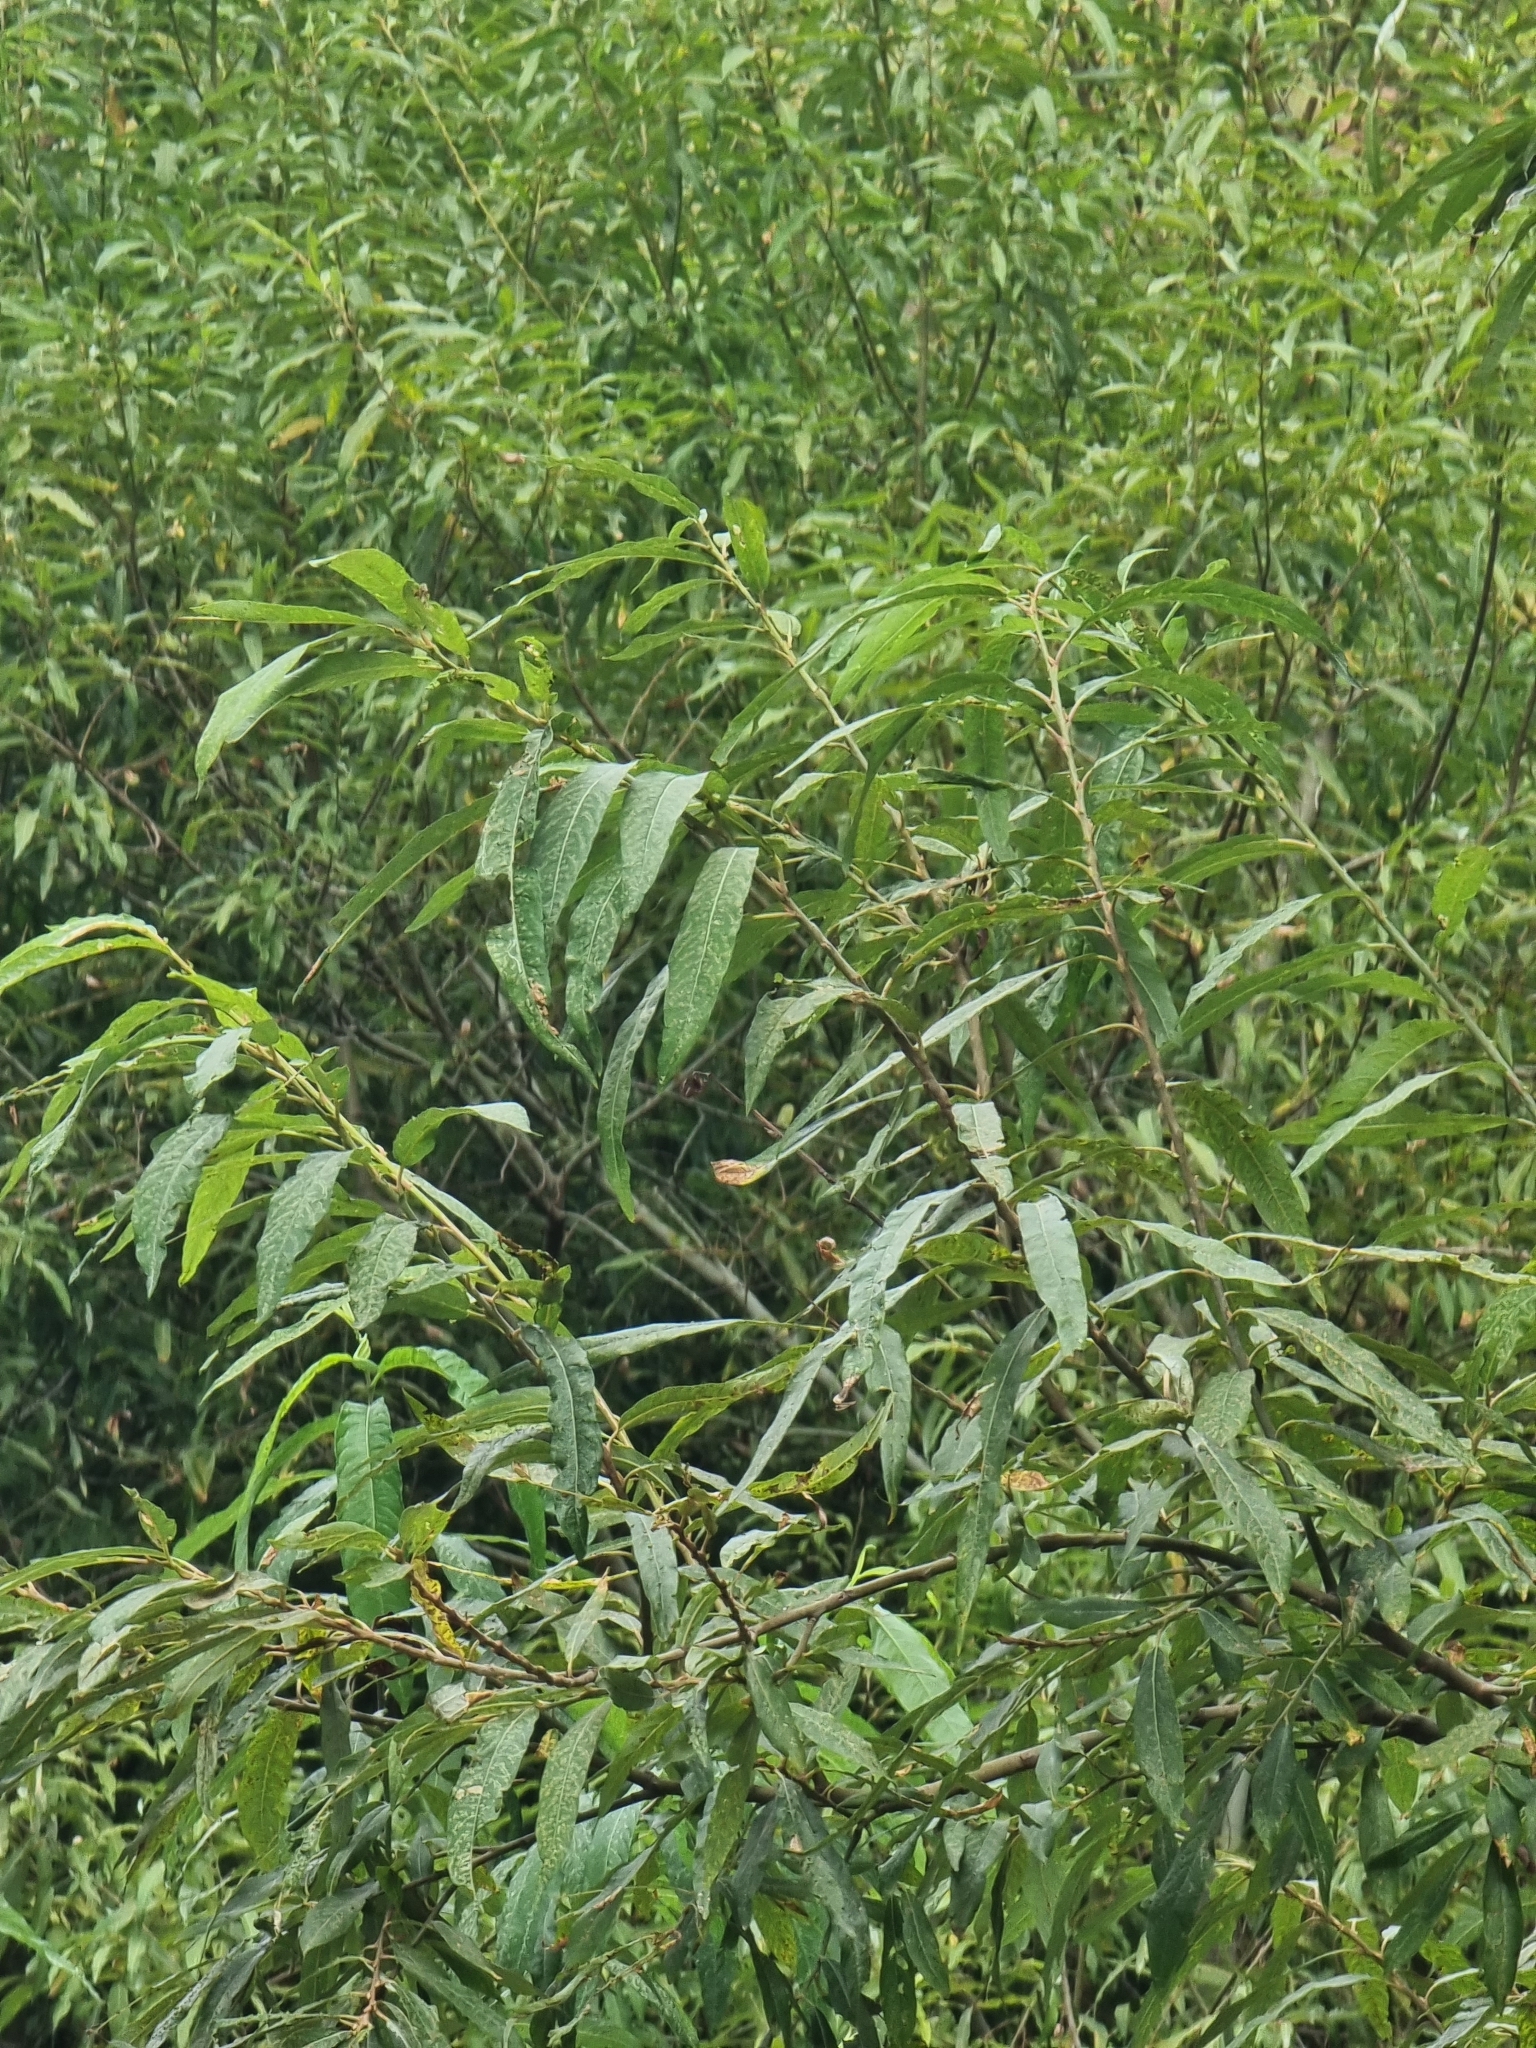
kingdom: Plantae
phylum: Tracheophyta
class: Magnoliopsida
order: Malpighiales
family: Salicaceae
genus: Salix
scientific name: Salix canariensis
